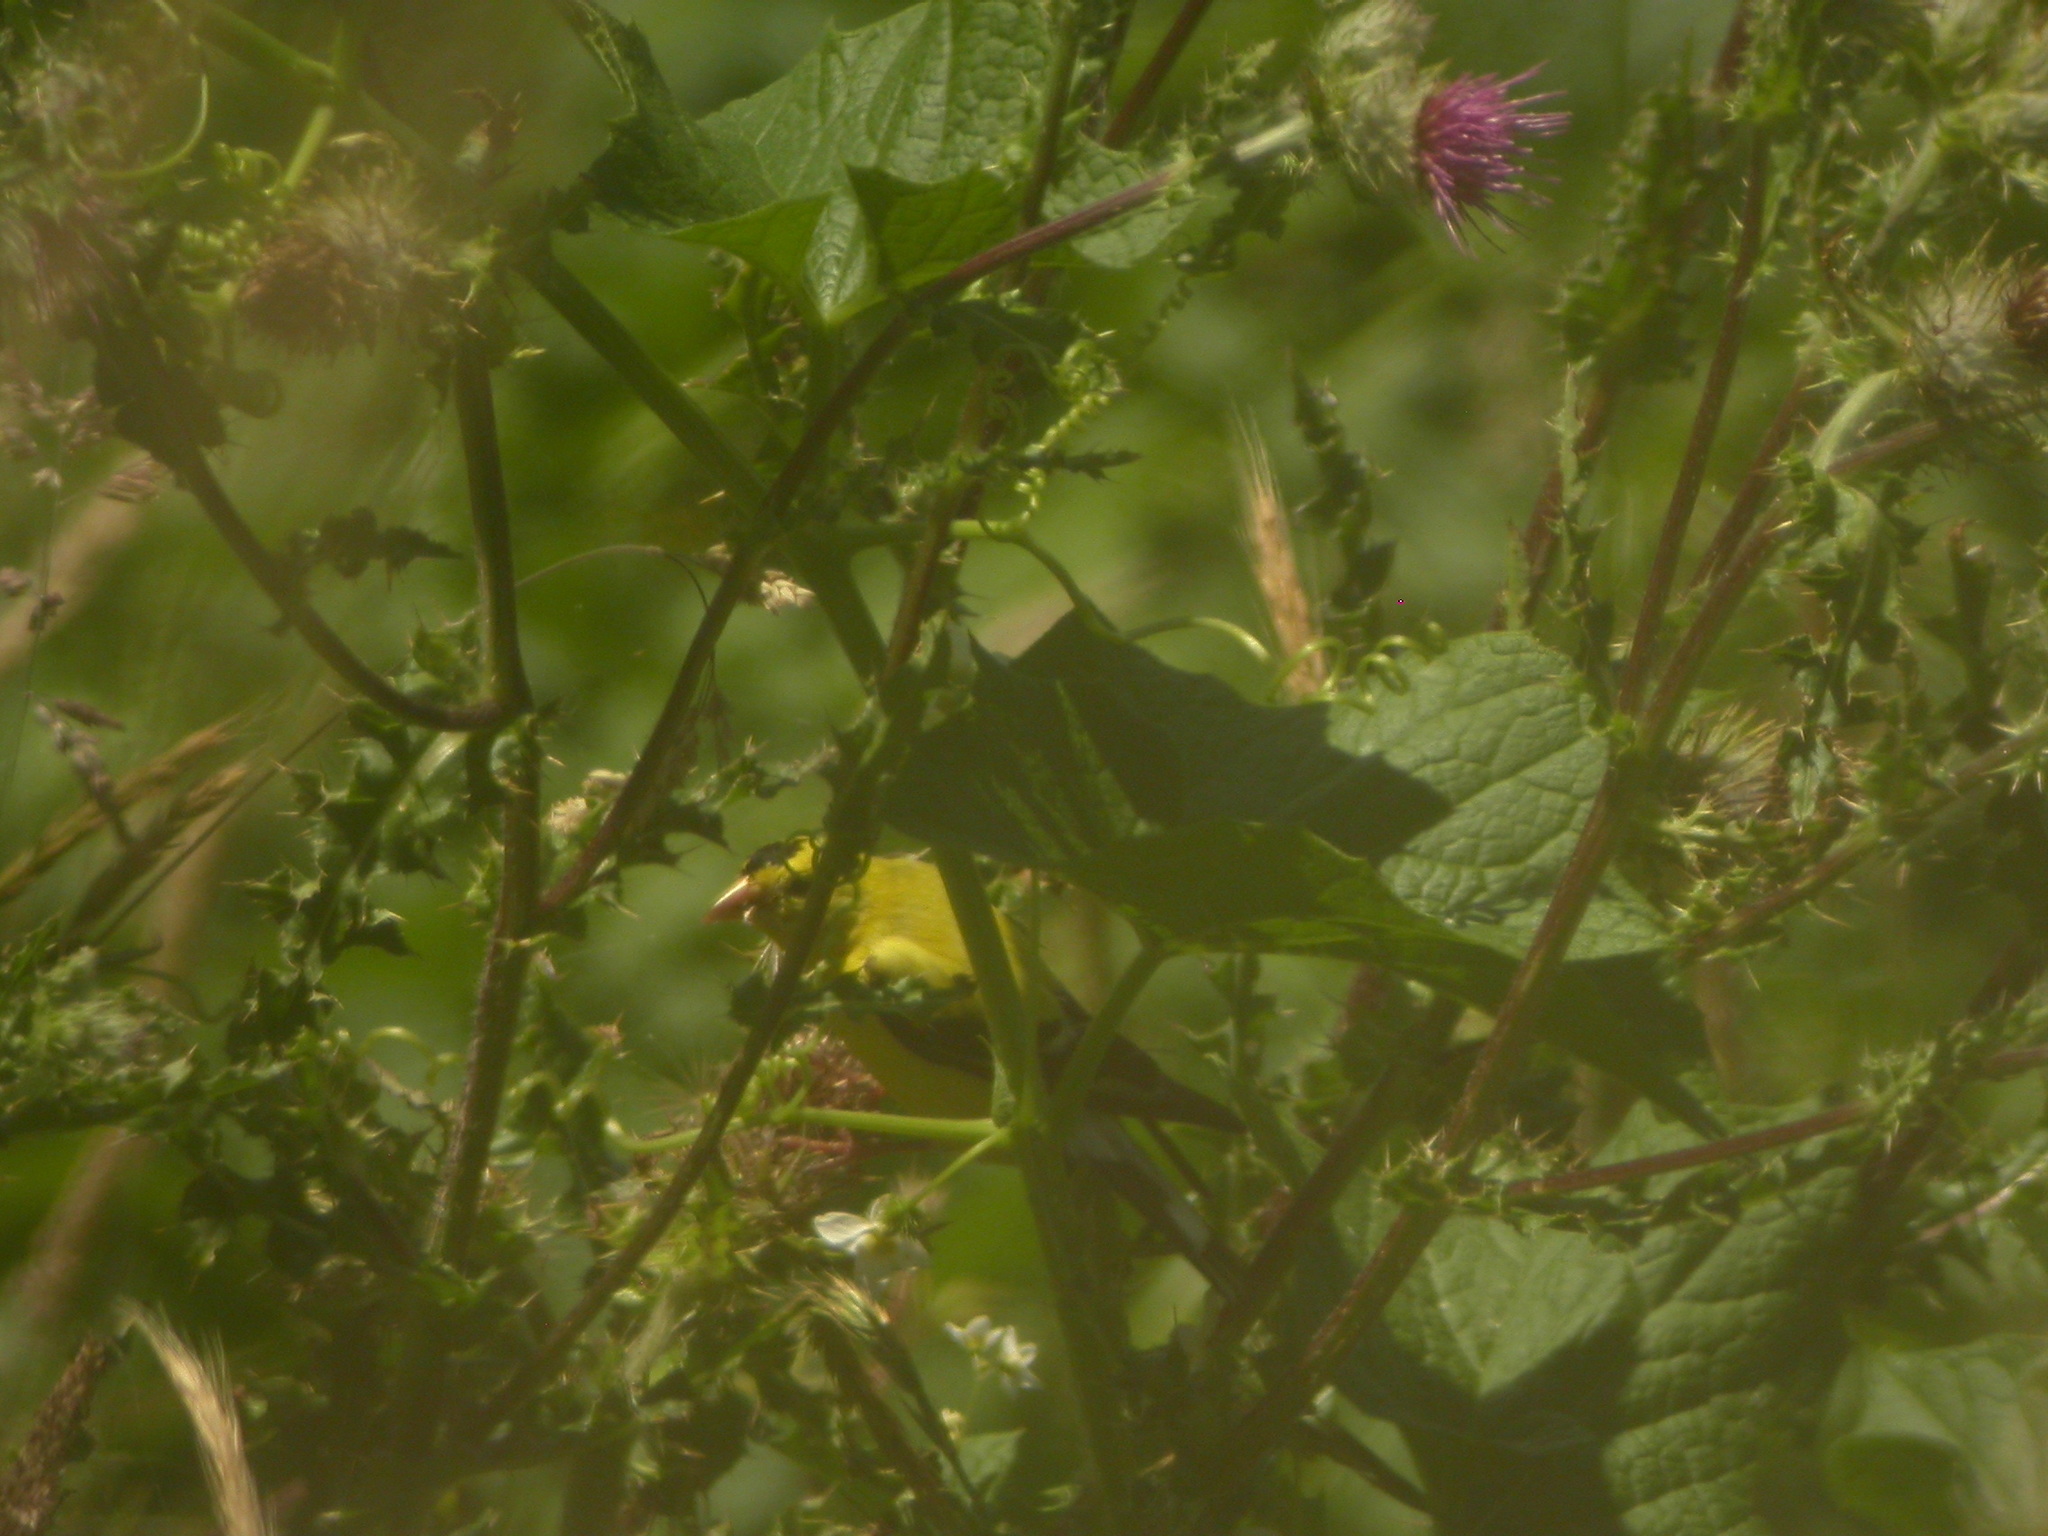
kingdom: Animalia
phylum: Chordata
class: Aves
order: Passeriformes
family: Fringillidae
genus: Spinus
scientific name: Spinus tristis
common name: American goldfinch
